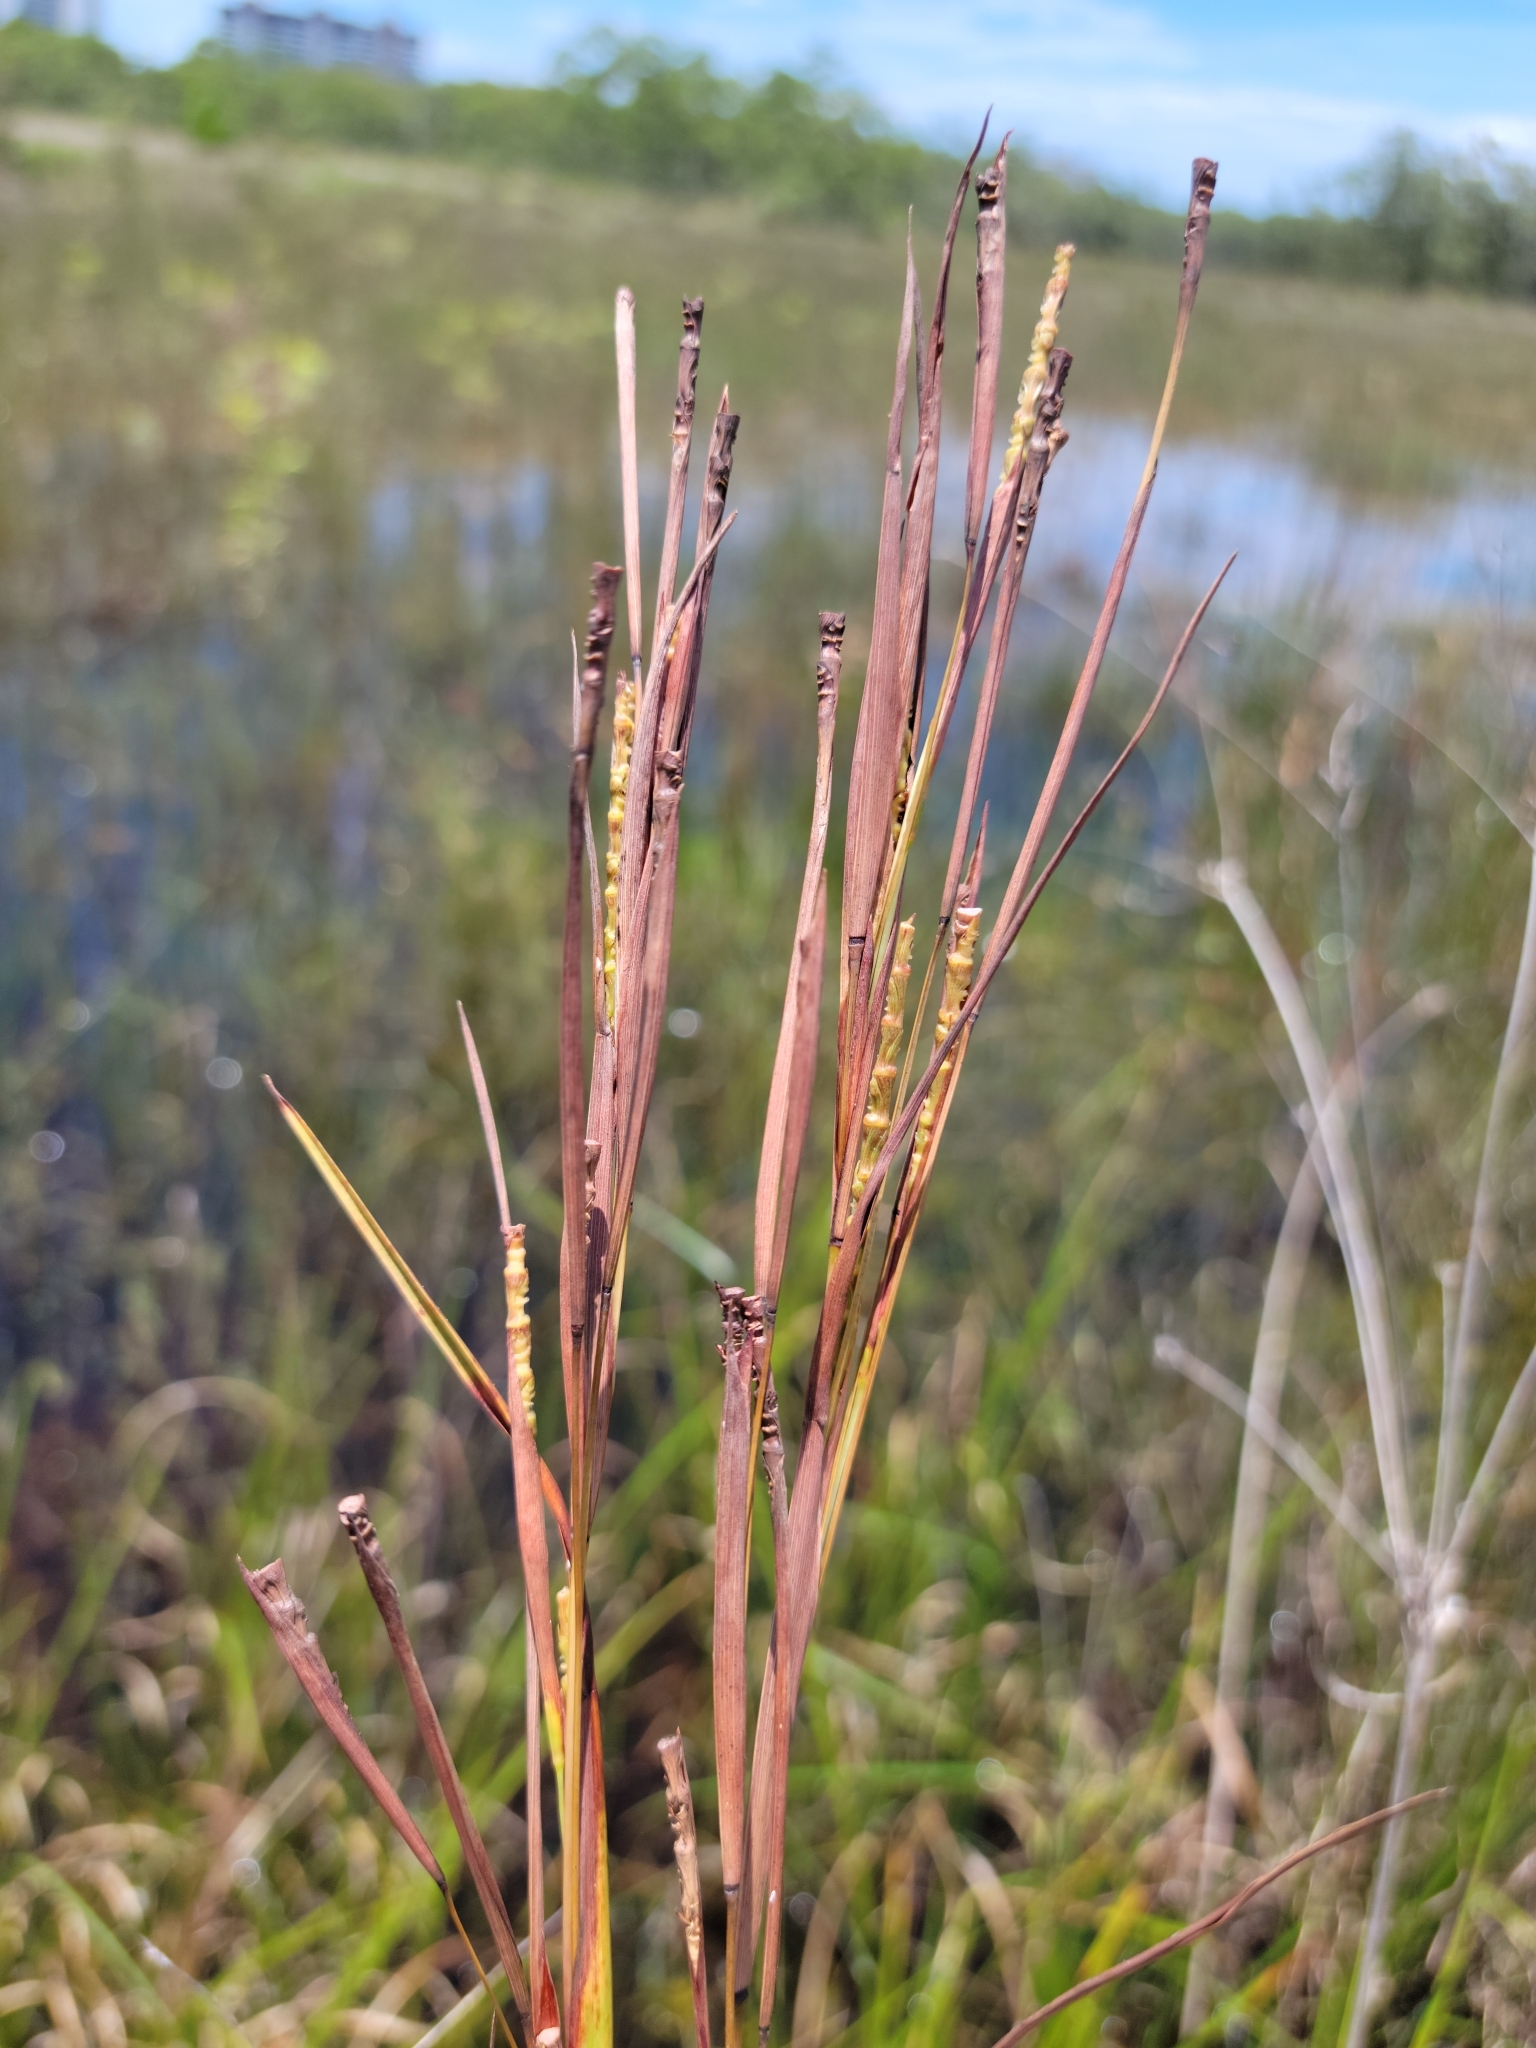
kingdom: Plantae
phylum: Tracheophyta
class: Liliopsida
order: Poales
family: Poaceae
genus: Rottboellia
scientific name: Rottboellia rugosa
